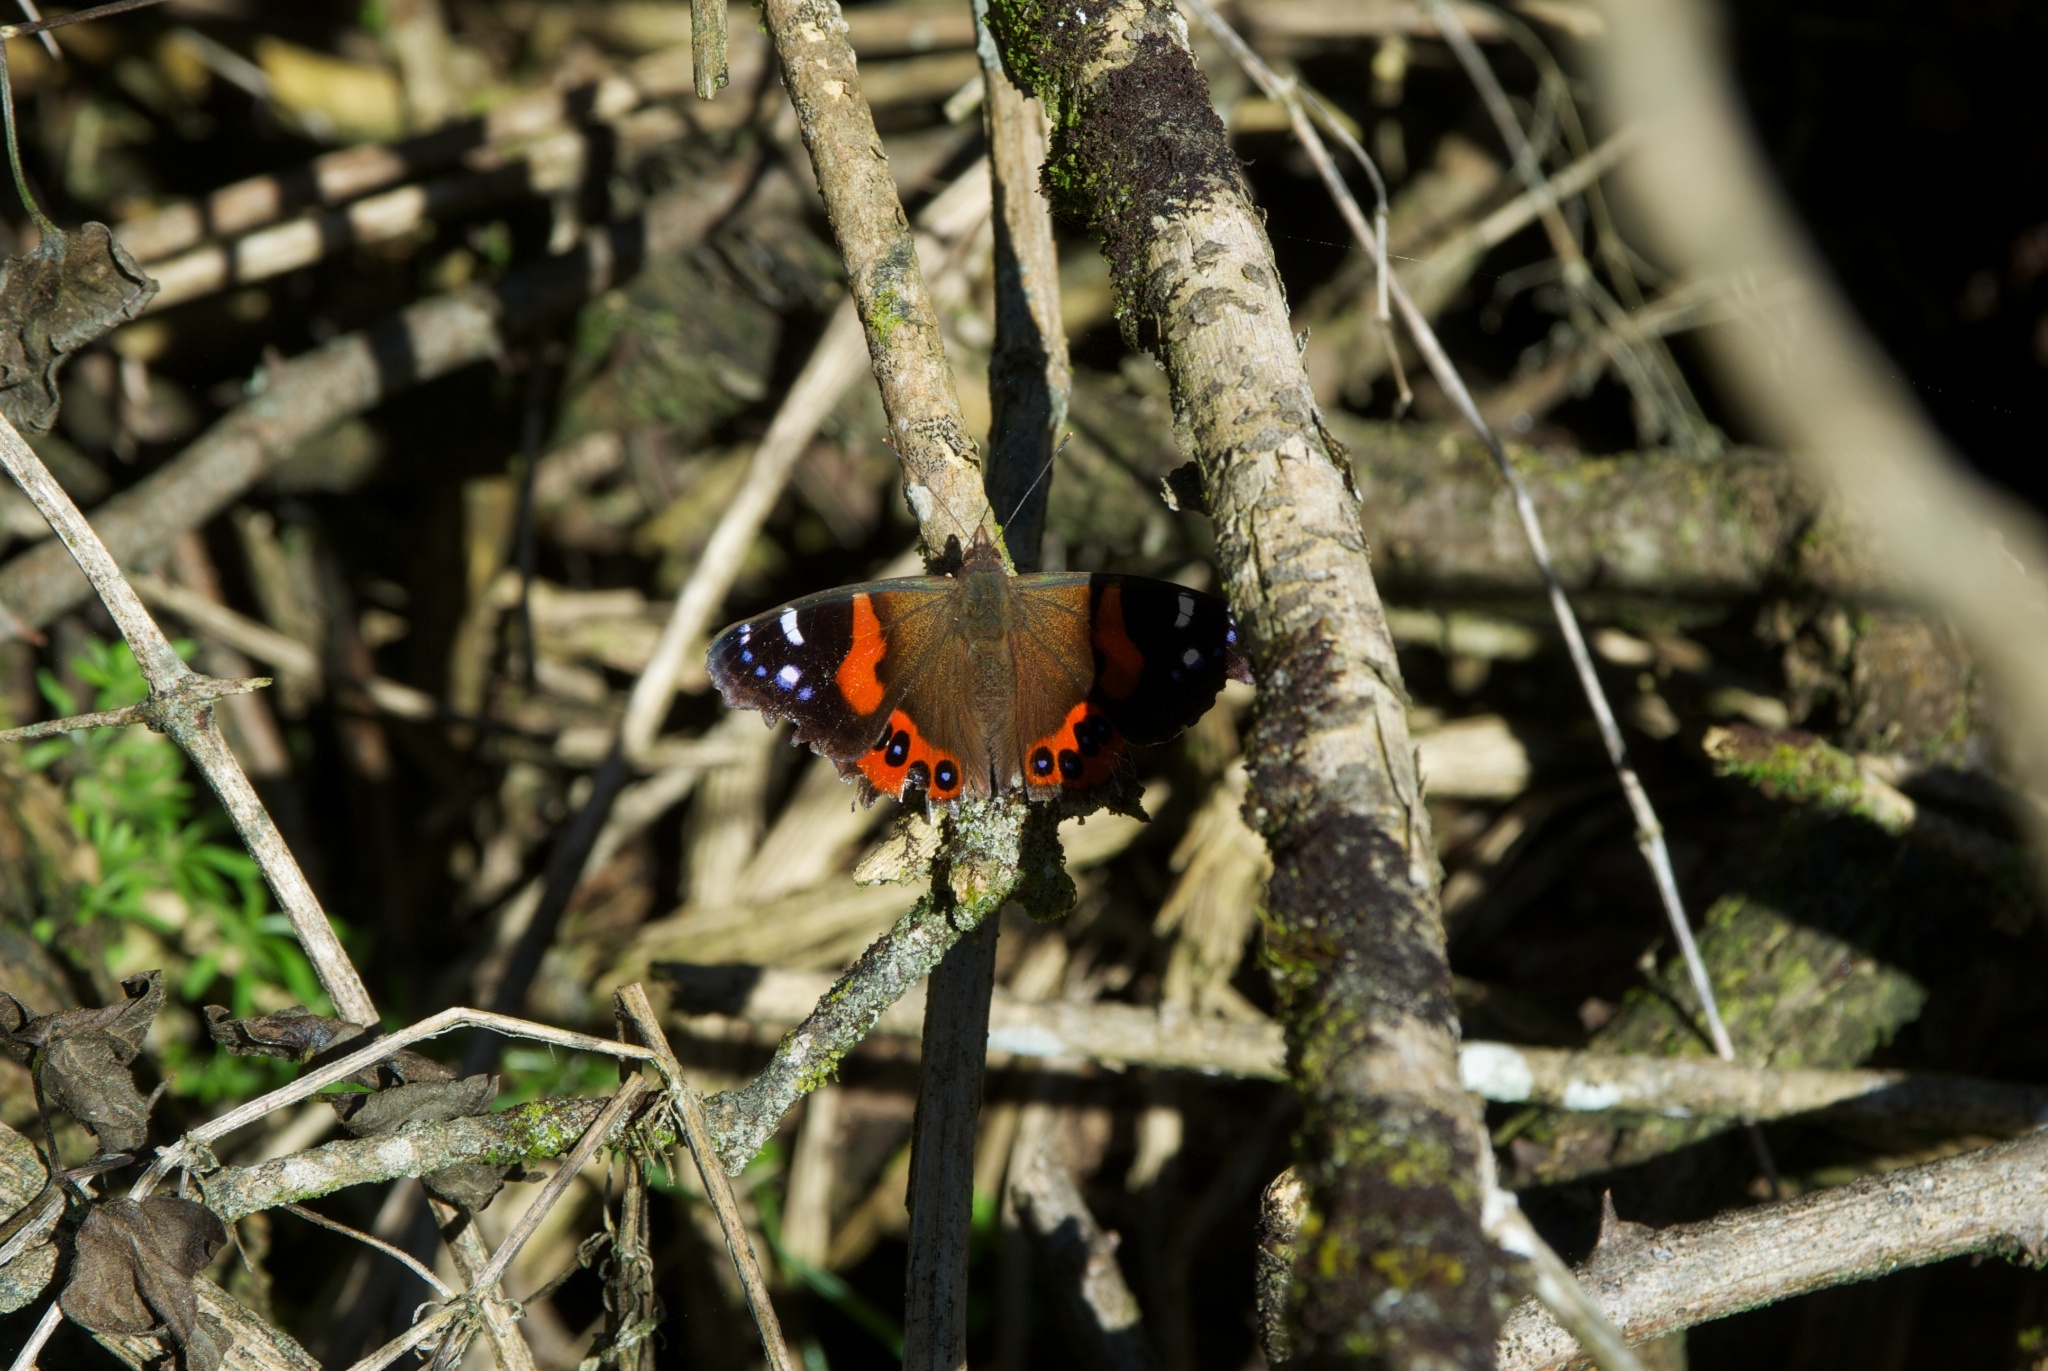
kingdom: Animalia
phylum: Arthropoda
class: Insecta
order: Lepidoptera
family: Nymphalidae
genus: Vanessa
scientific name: Vanessa gonerilla
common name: New zealand red admiral
